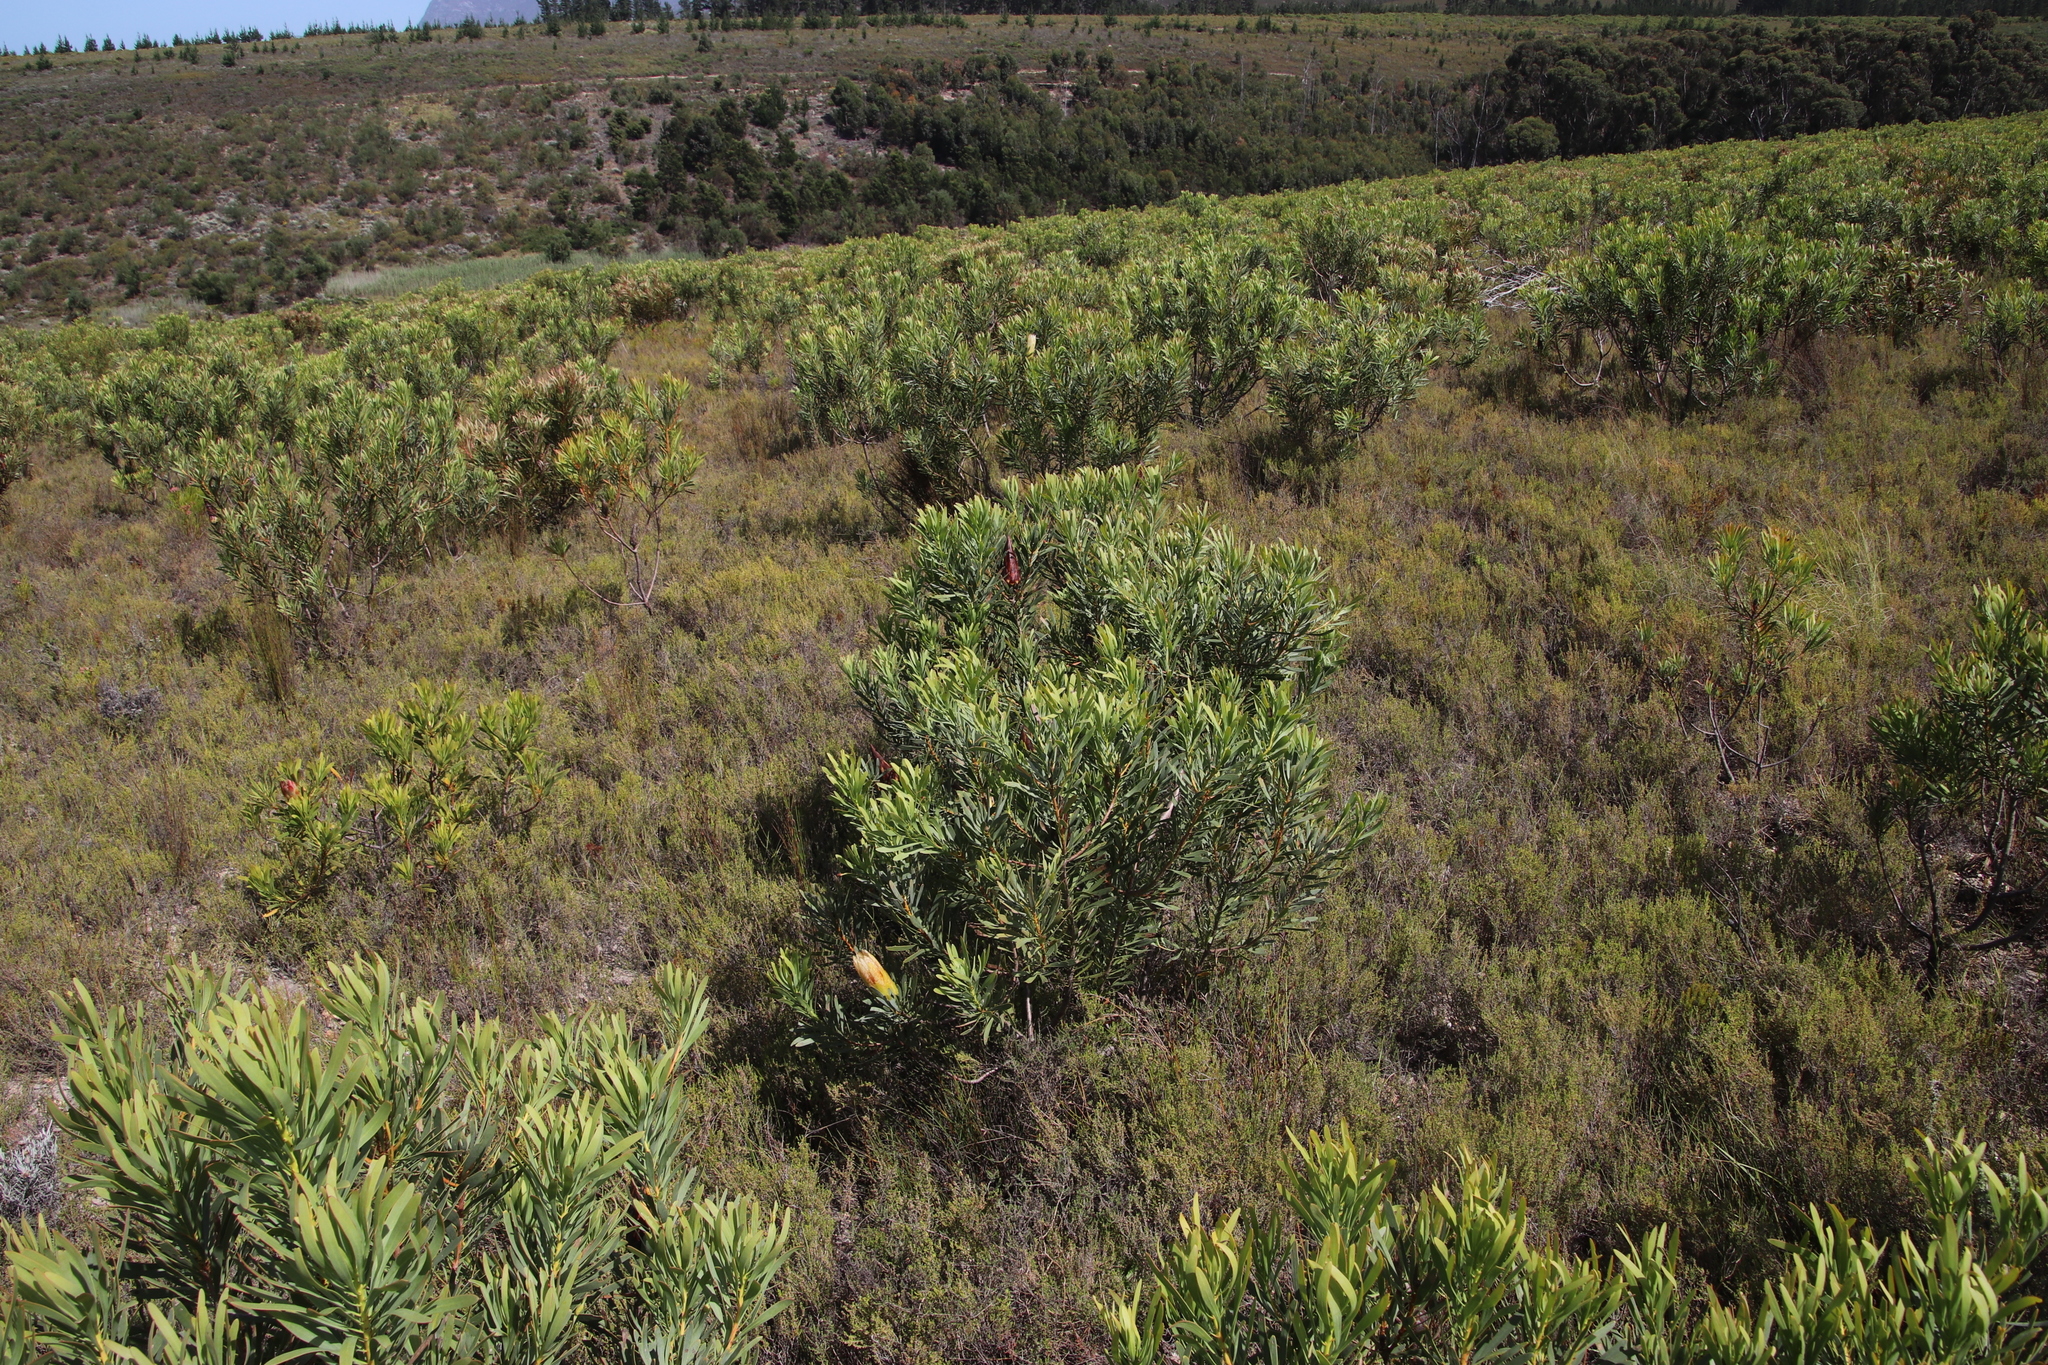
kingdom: Plantae
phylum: Tracheophyta
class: Magnoliopsida
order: Proteales
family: Proteaceae
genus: Protea
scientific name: Protea repens
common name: Sugarbush
